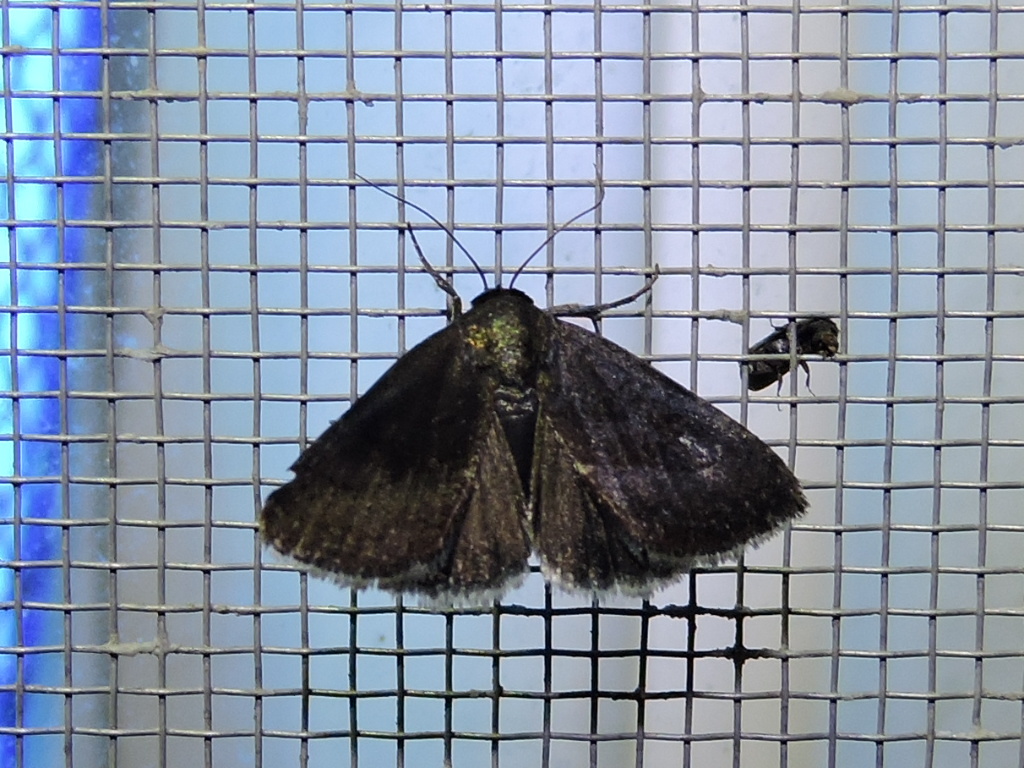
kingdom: Animalia
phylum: Arthropoda
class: Insecta
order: Lepidoptera
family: Noctuidae
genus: Galgula
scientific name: Galgula partita
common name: Wedgeling
